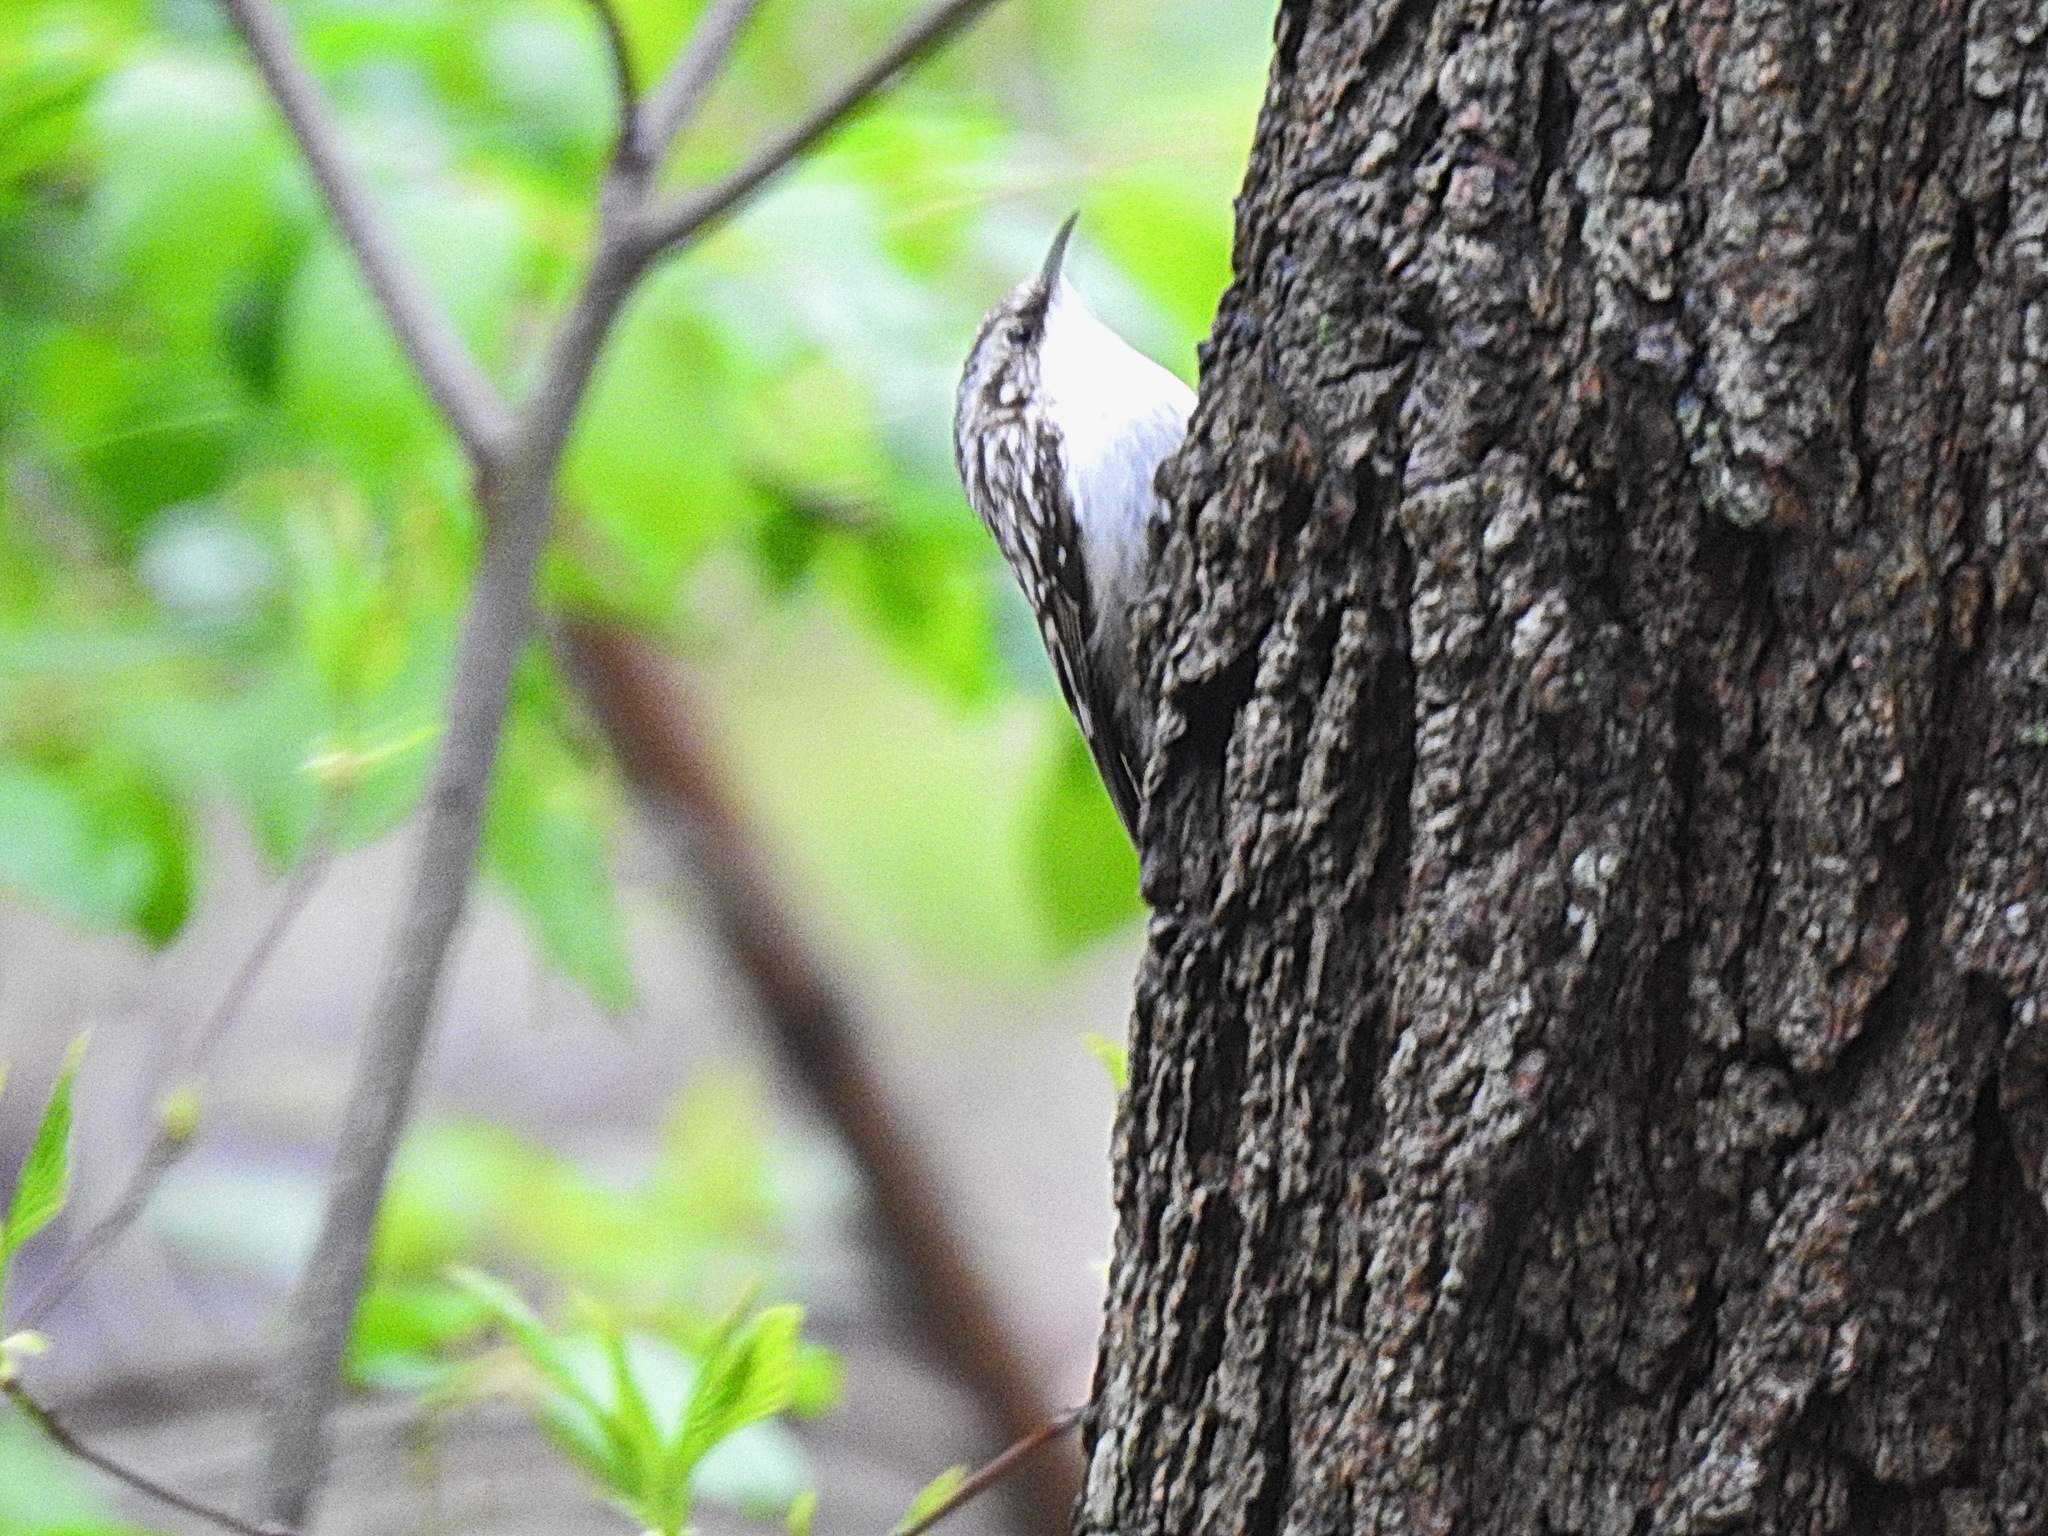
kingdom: Animalia
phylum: Chordata
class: Aves
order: Passeriformes
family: Certhiidae
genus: Certhia
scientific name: Certhia americana
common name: Brown creeper
